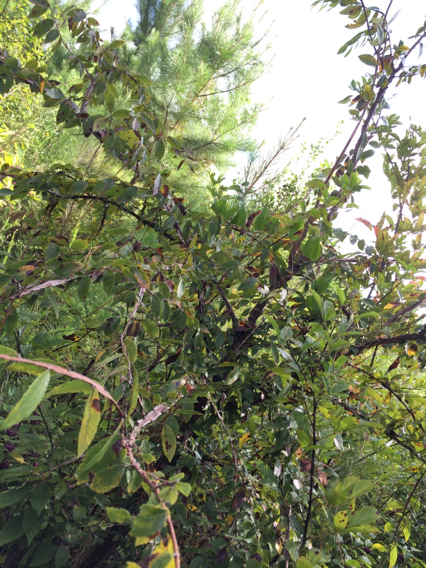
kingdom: Plantae
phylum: Tracheophyta
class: Magnoliopsida
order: Rosales
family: Ulmaceae
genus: Ulmus
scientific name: Ulmus alata
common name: Winged elm
